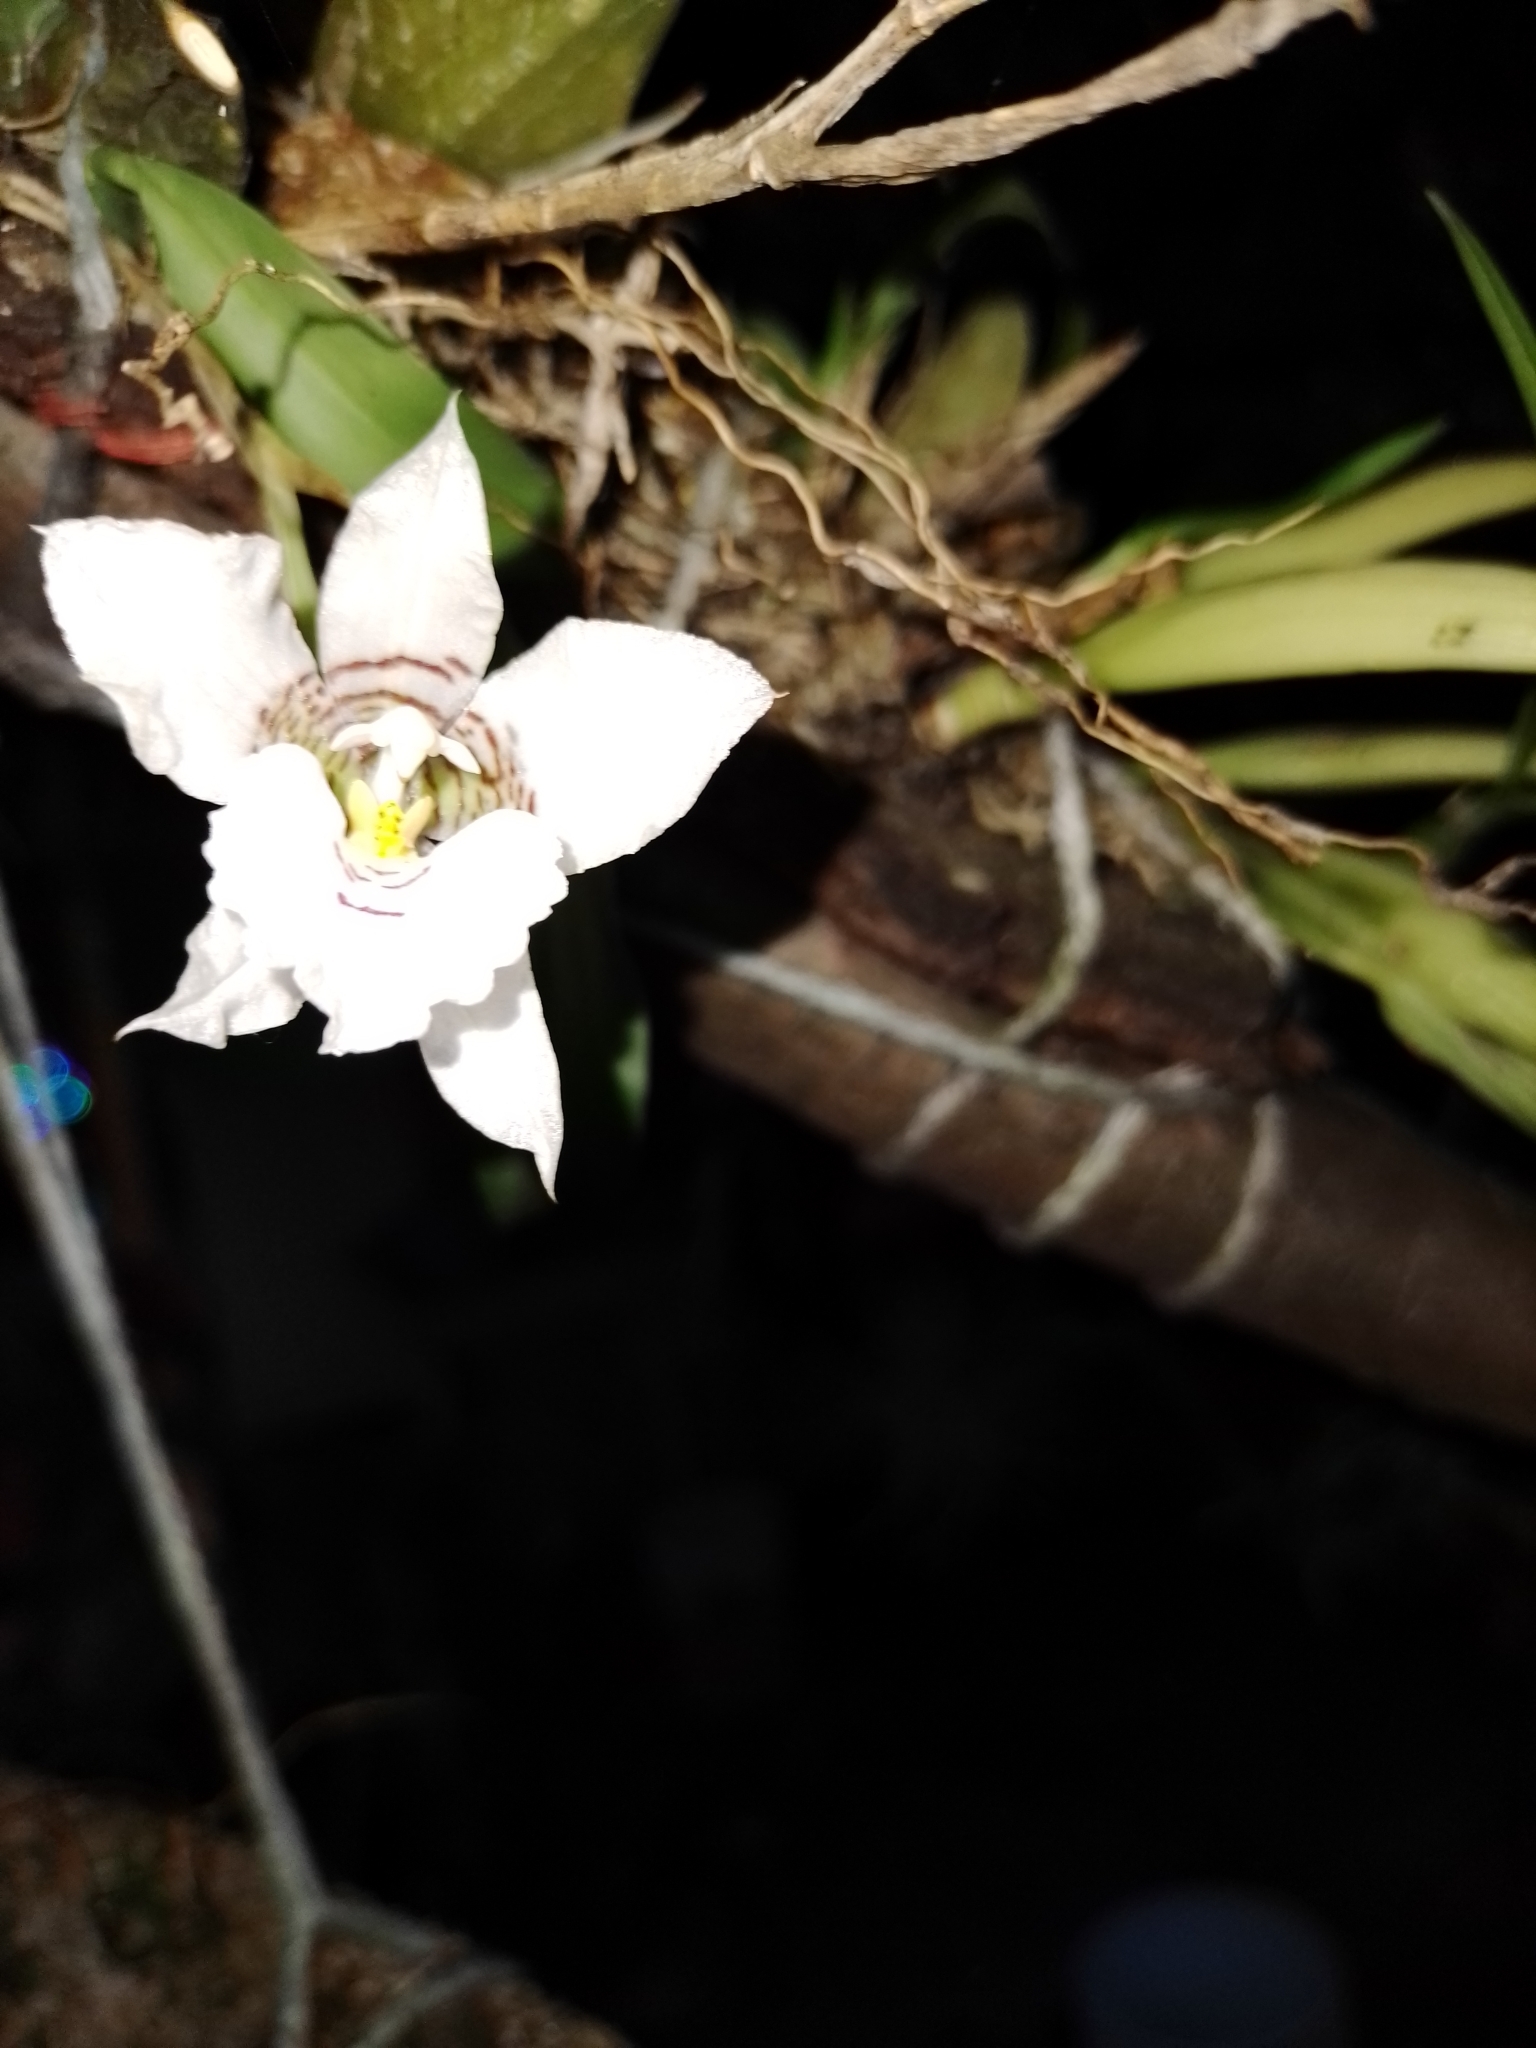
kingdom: Plantae
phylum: Tracheophyta
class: Liliopsida
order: Asparagales
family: Orchidaceae
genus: Rhynchostele
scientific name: Rhynchostele cervantesii
